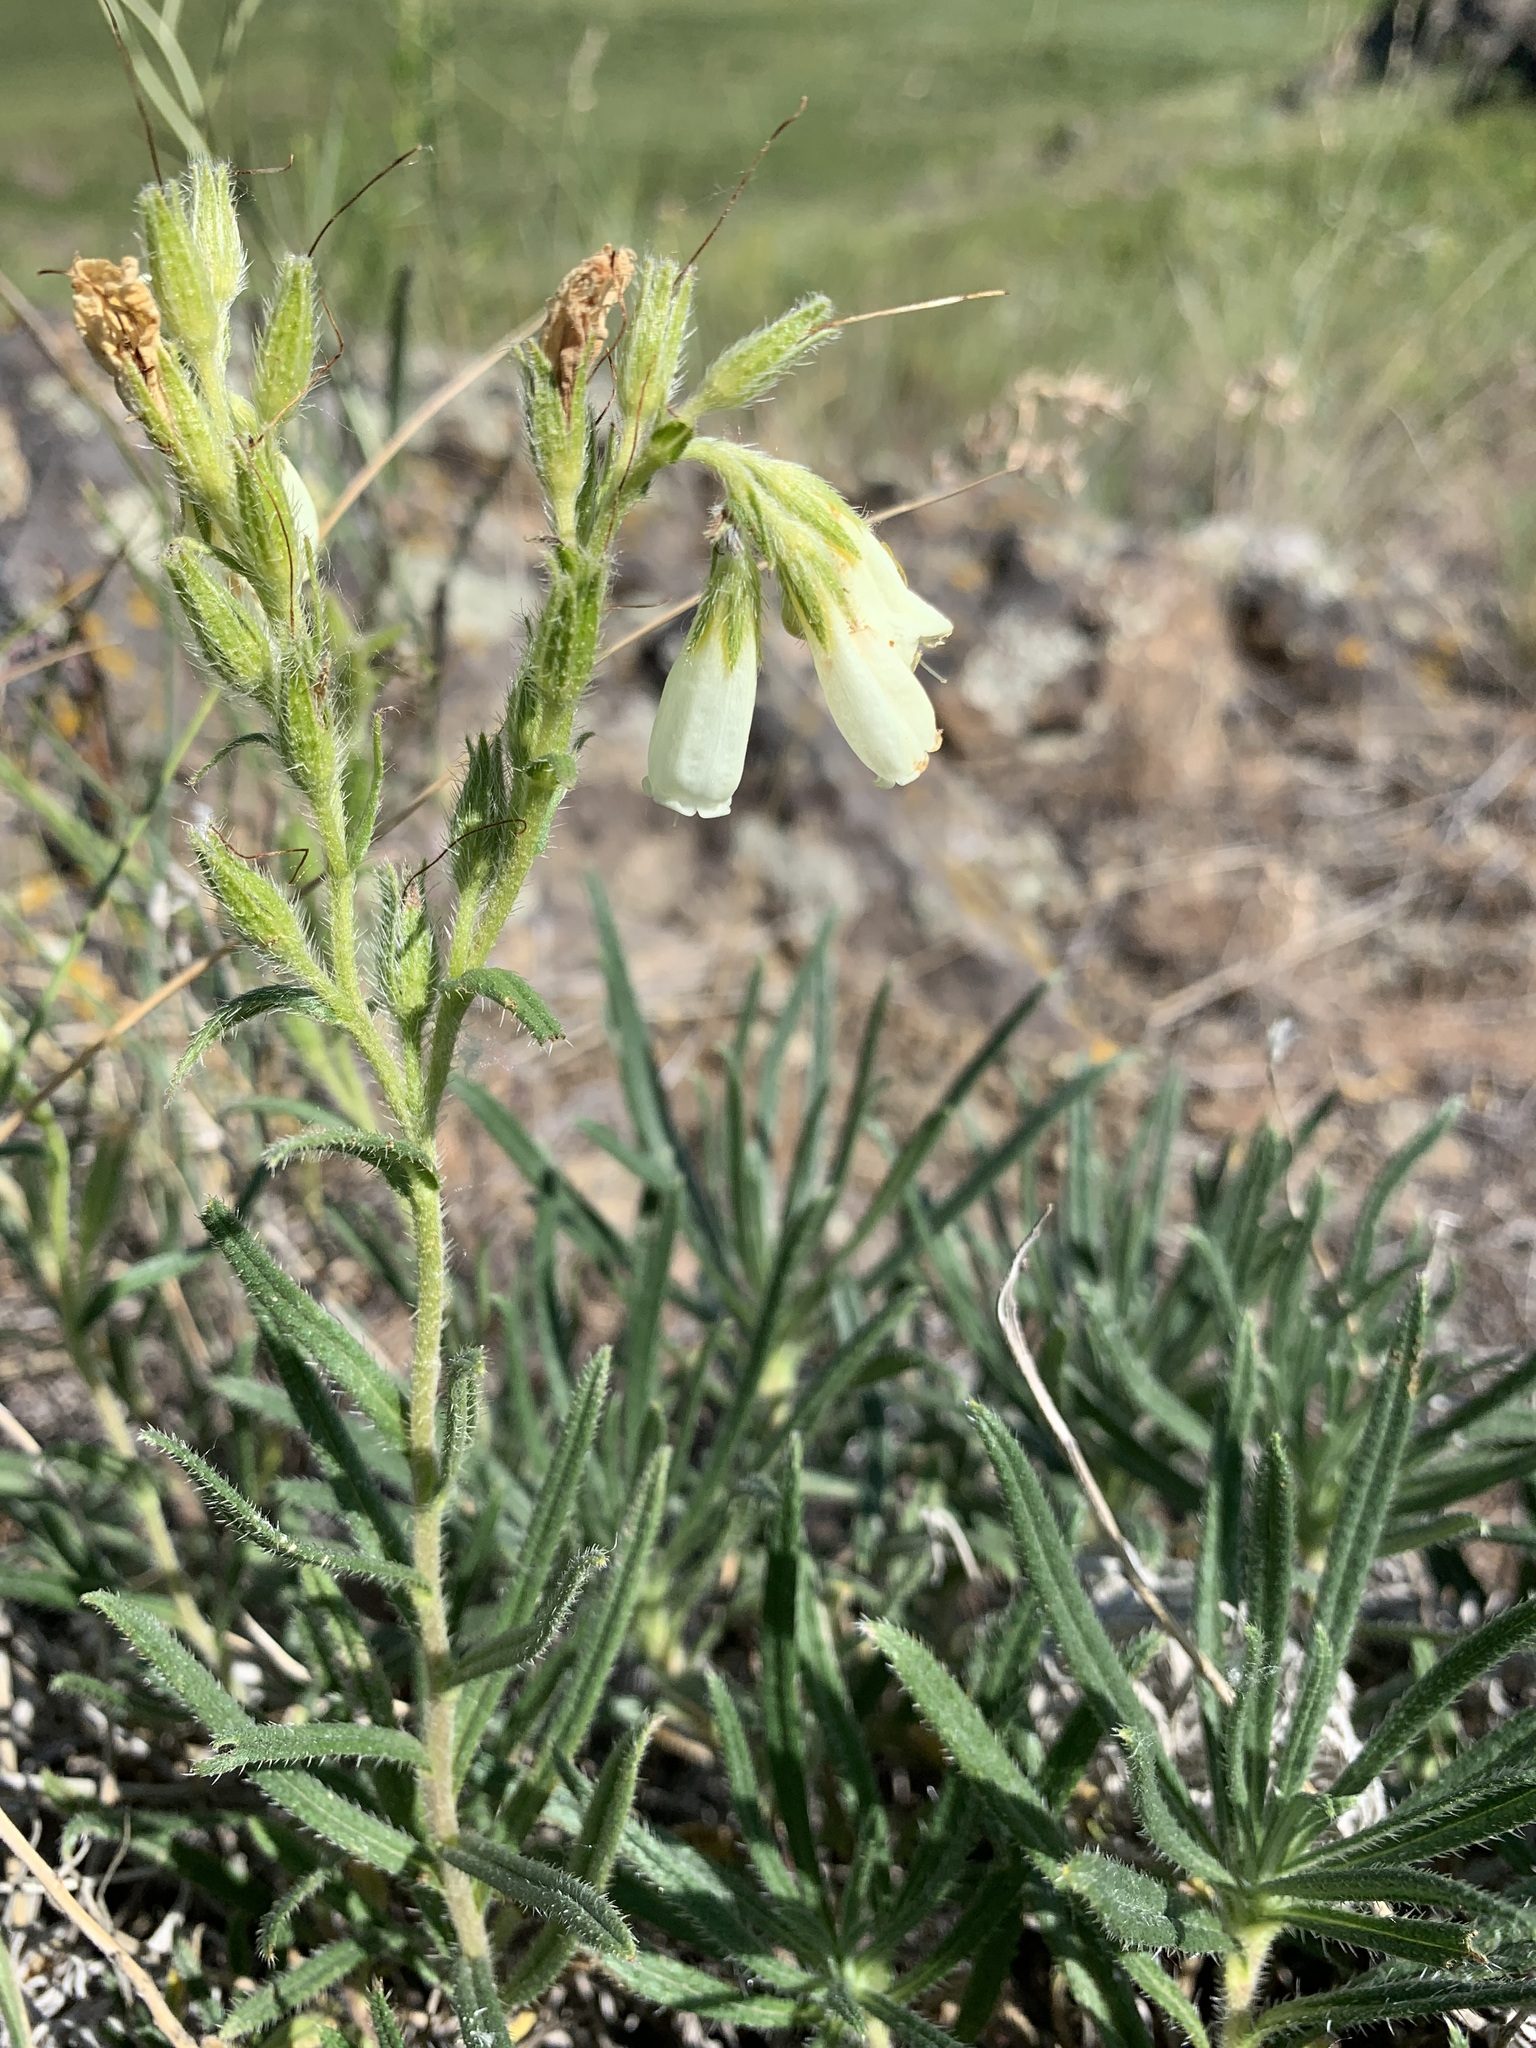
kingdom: Plantae
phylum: Tracheophyta
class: Magnoliopsida
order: Boraginales
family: Boraginaceae
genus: Onosma
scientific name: Onosma simplicissima
